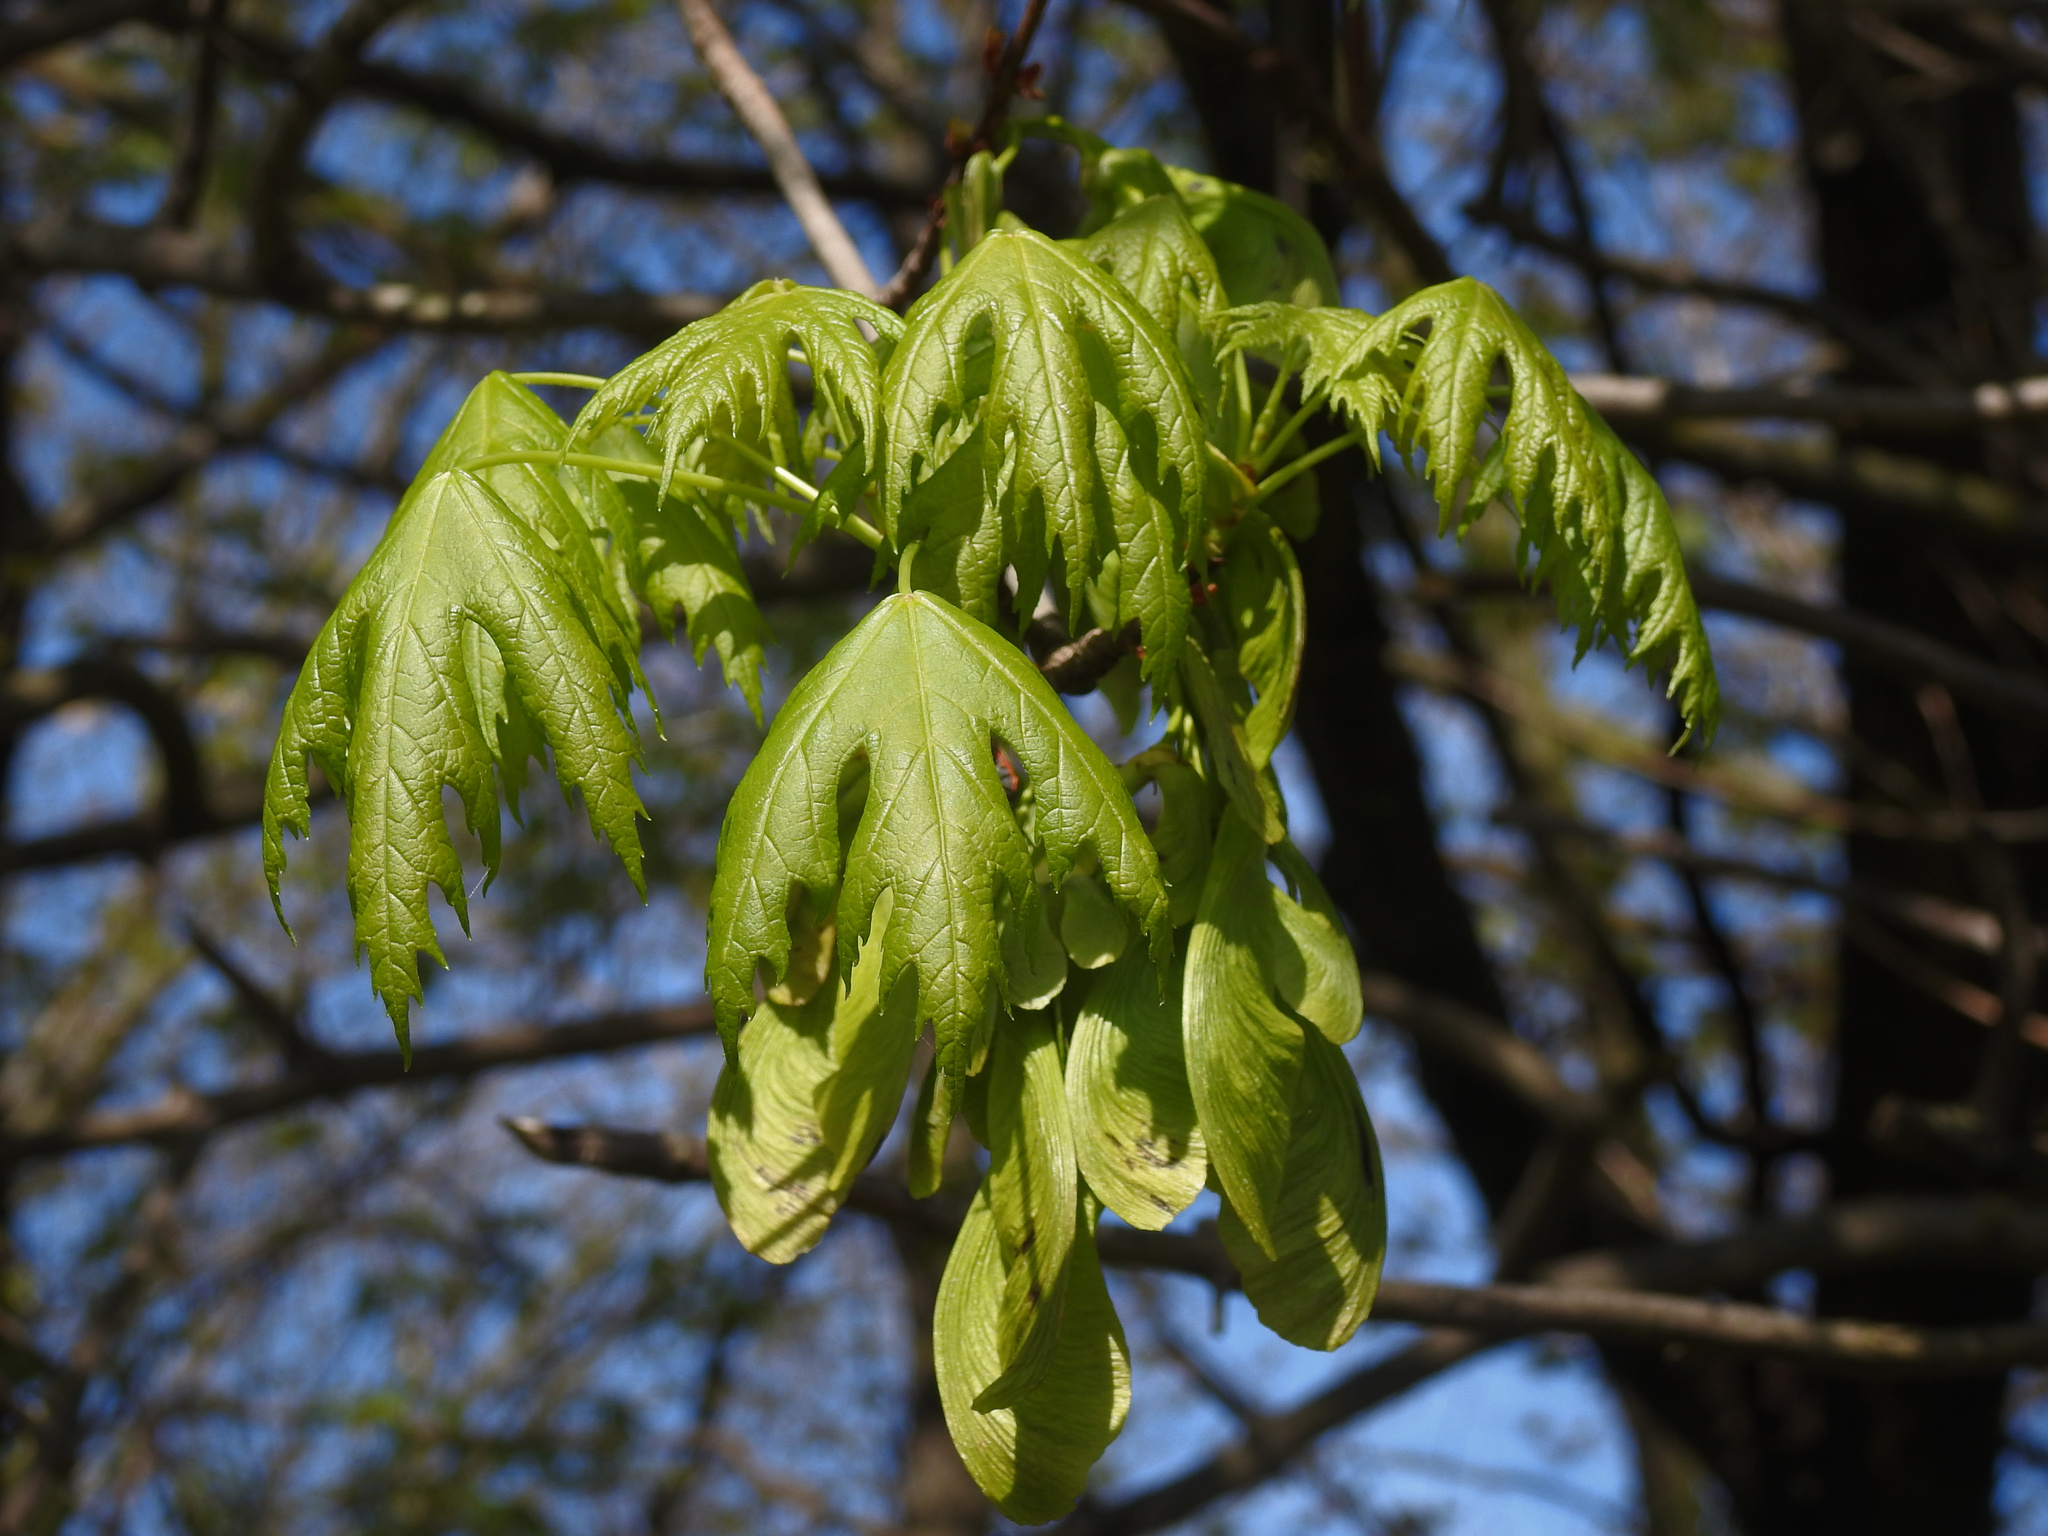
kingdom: Plantae
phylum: Tracheophyta
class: Magnoliopsida
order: Sapindales
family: Sapindaceae
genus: Acer
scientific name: Acer saccharinum
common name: Silver maple
